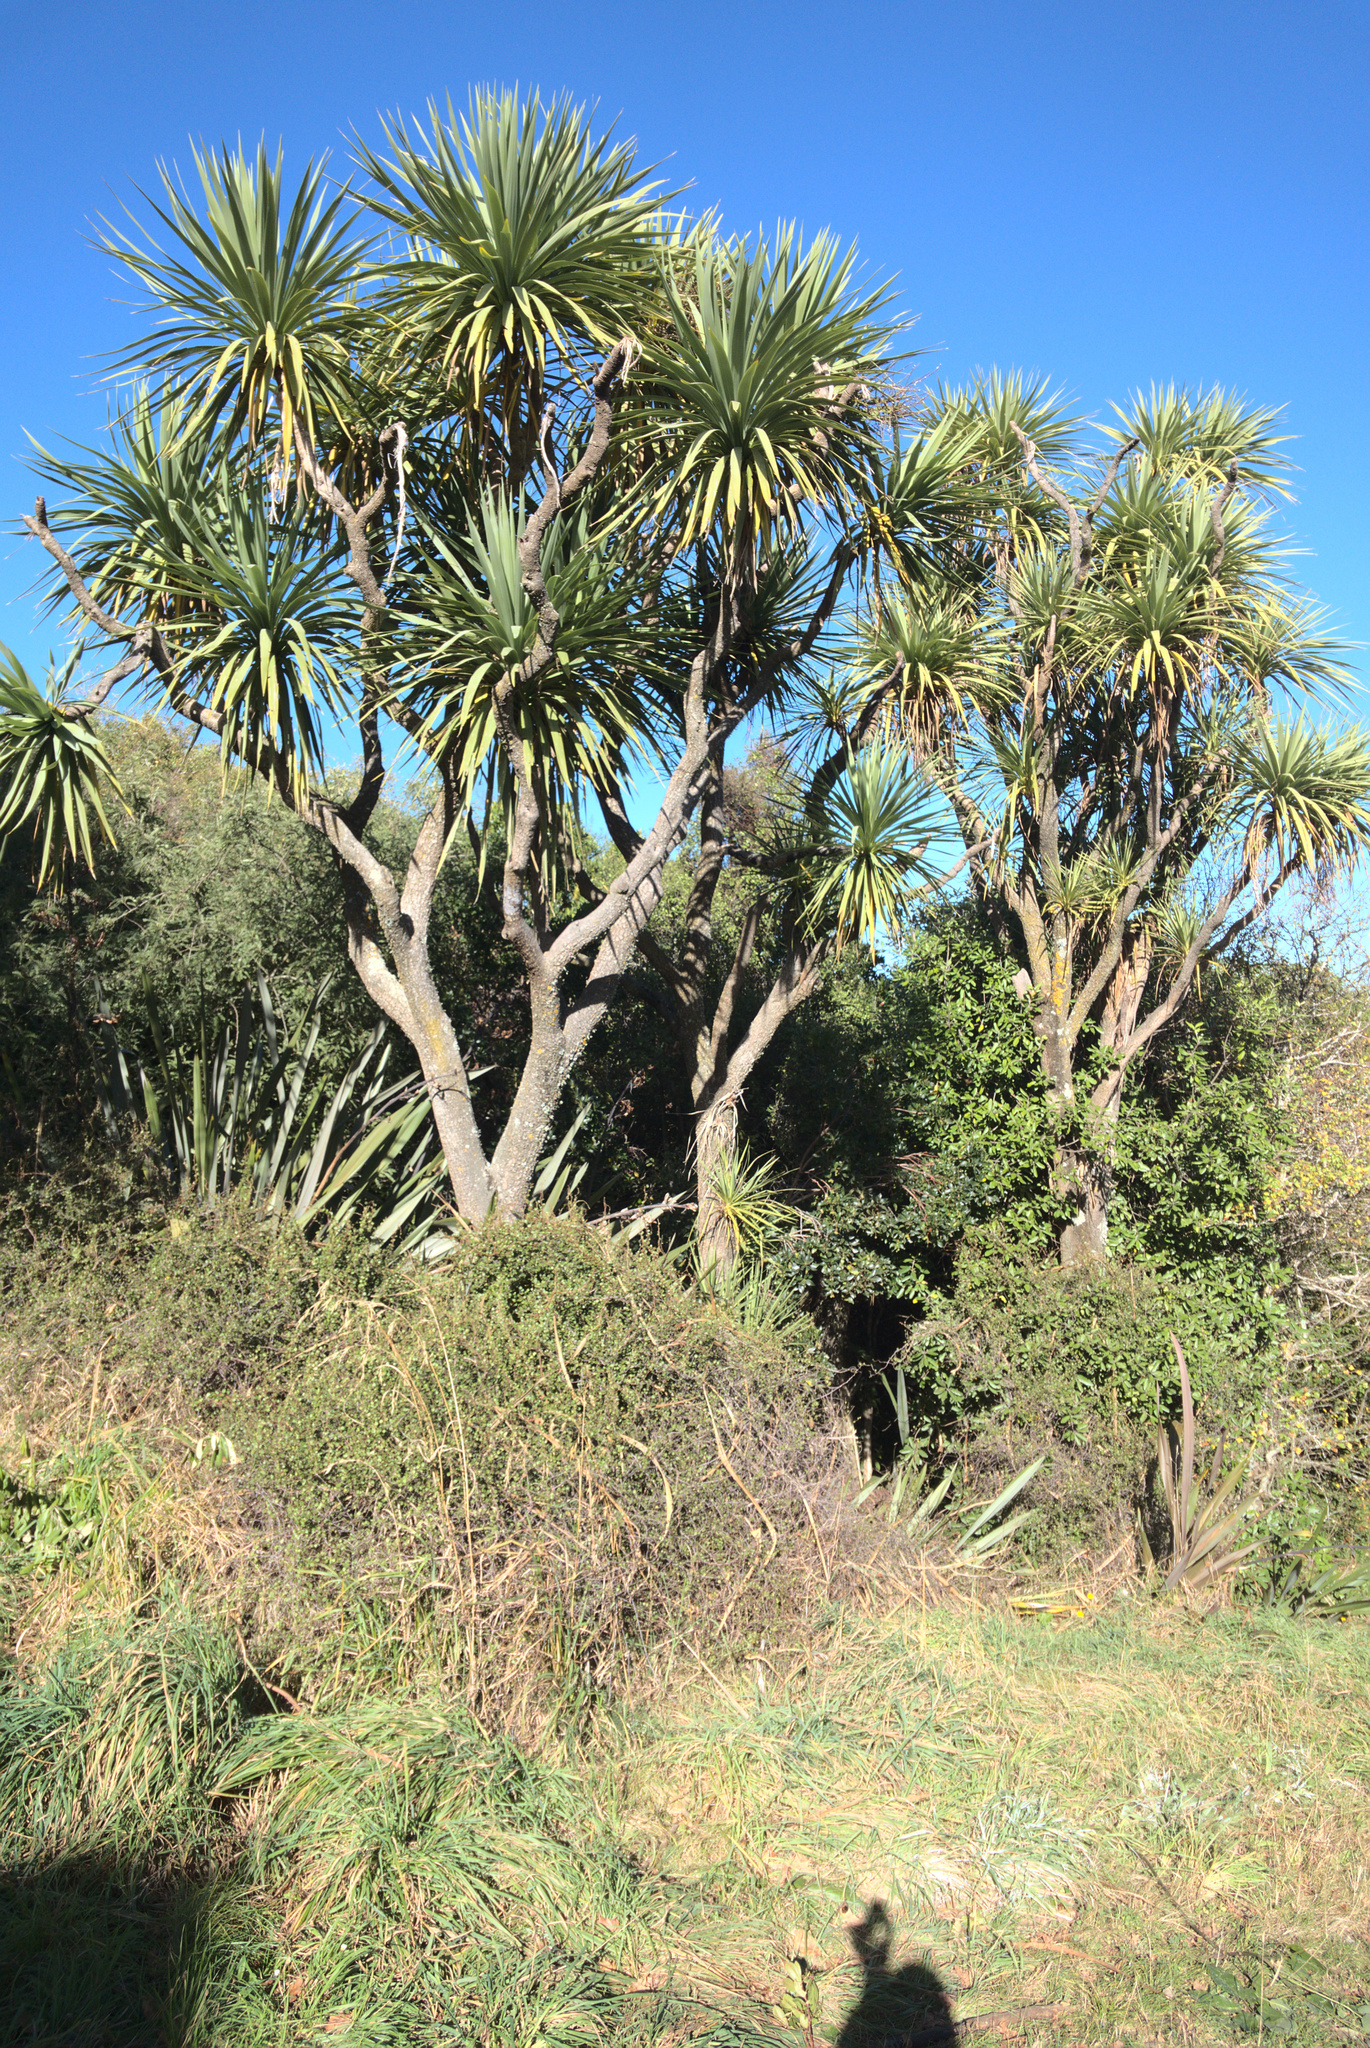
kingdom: Plantae
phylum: Tracheophyta
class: Liliopsida
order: Asparagales
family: Asparagaceae
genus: Cordyline
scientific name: Cordyline australis
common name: Cabbage-palm
